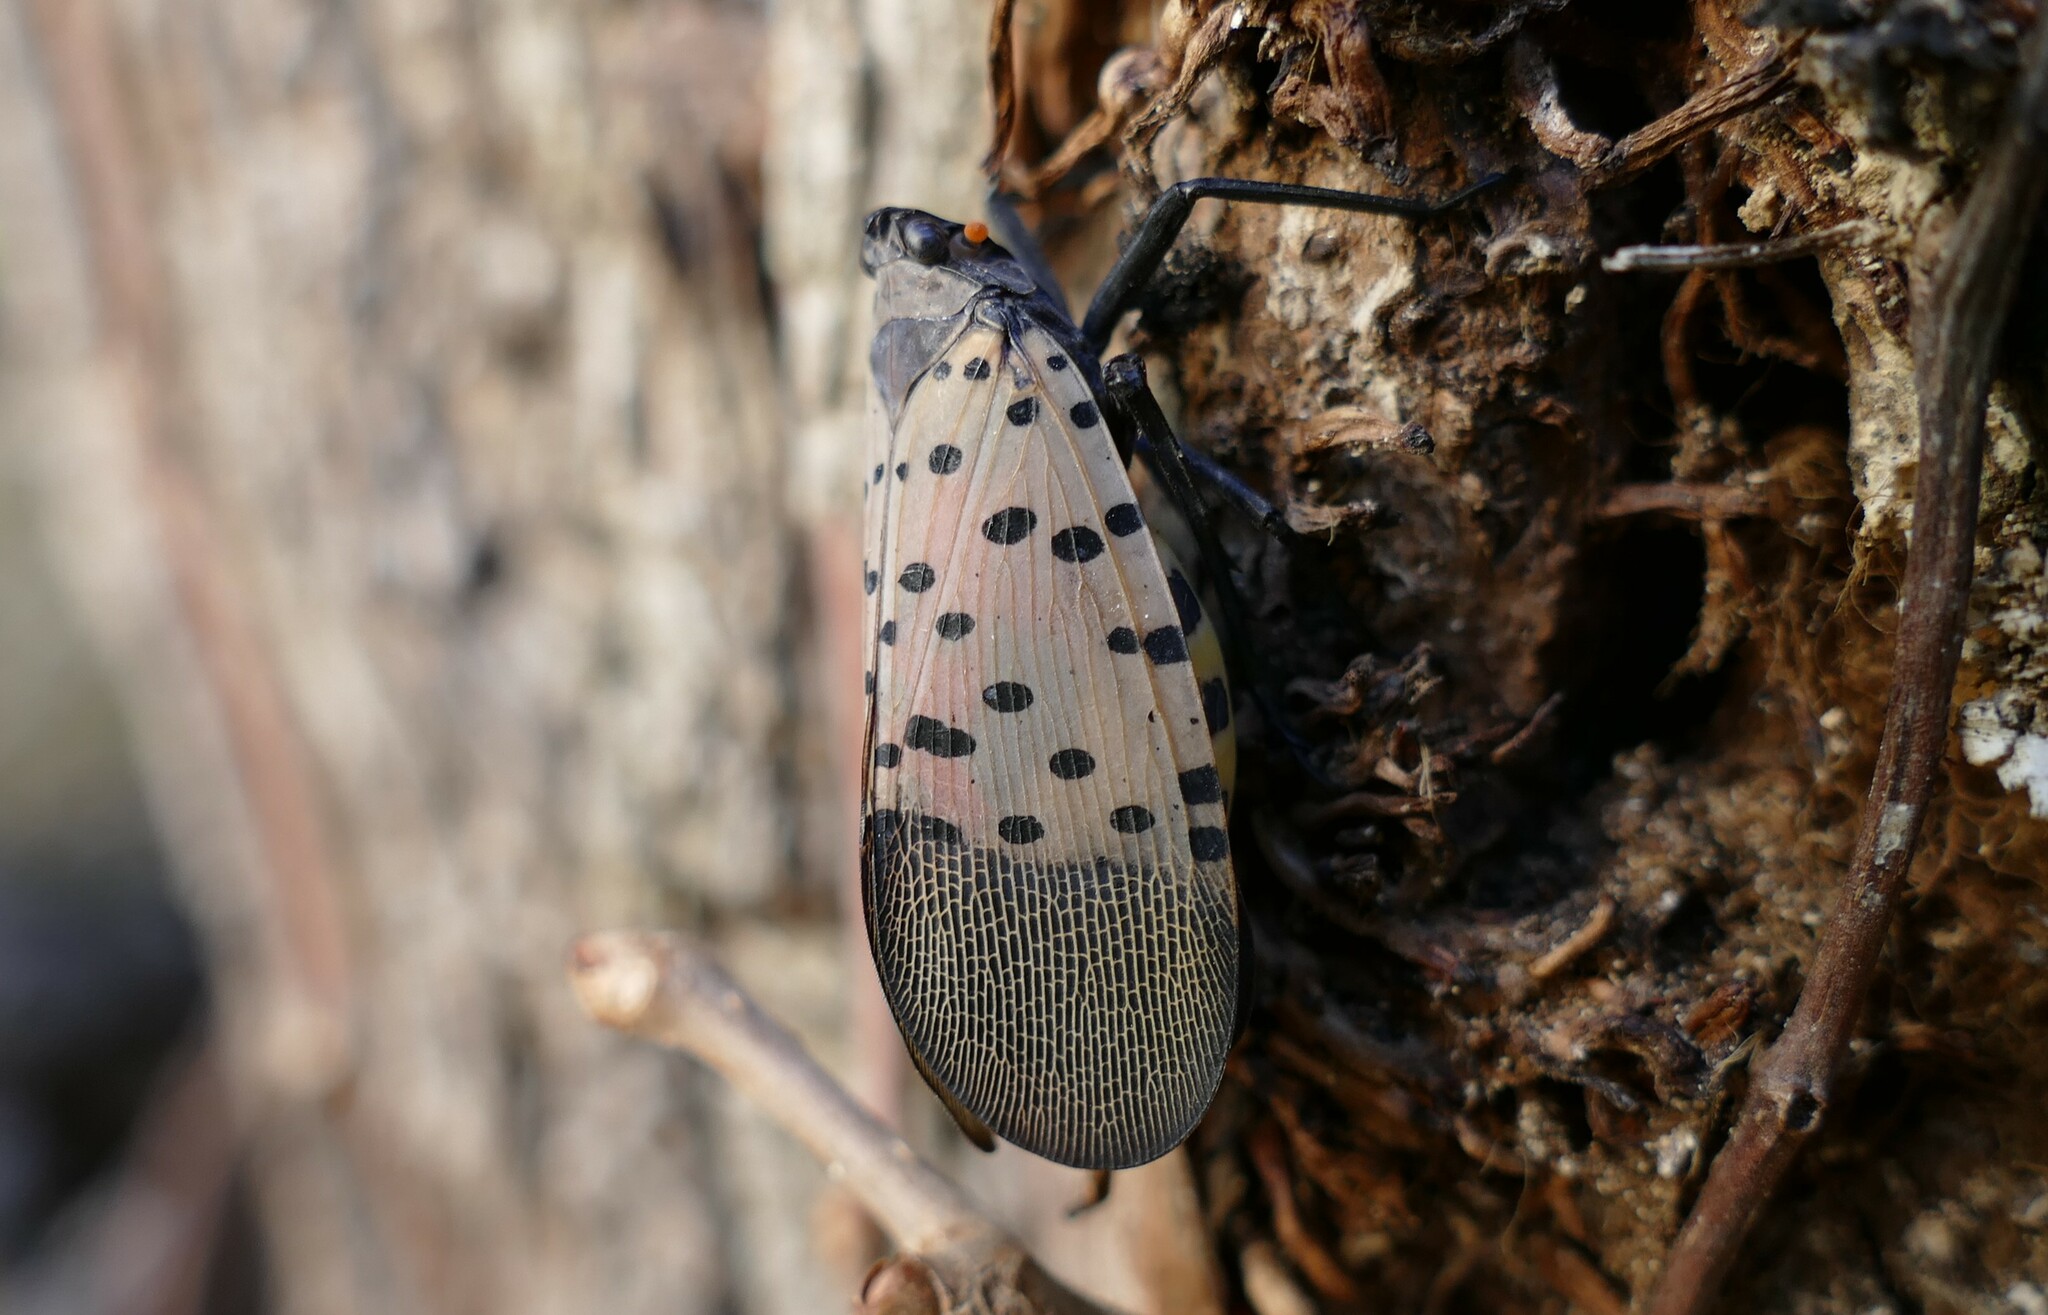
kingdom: Animalia
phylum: Arthropoda
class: Insecta
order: Hemiptera
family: Fulgoridae
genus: Lycorma
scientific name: Lycorma delicatula
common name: Spotted lanternfly
